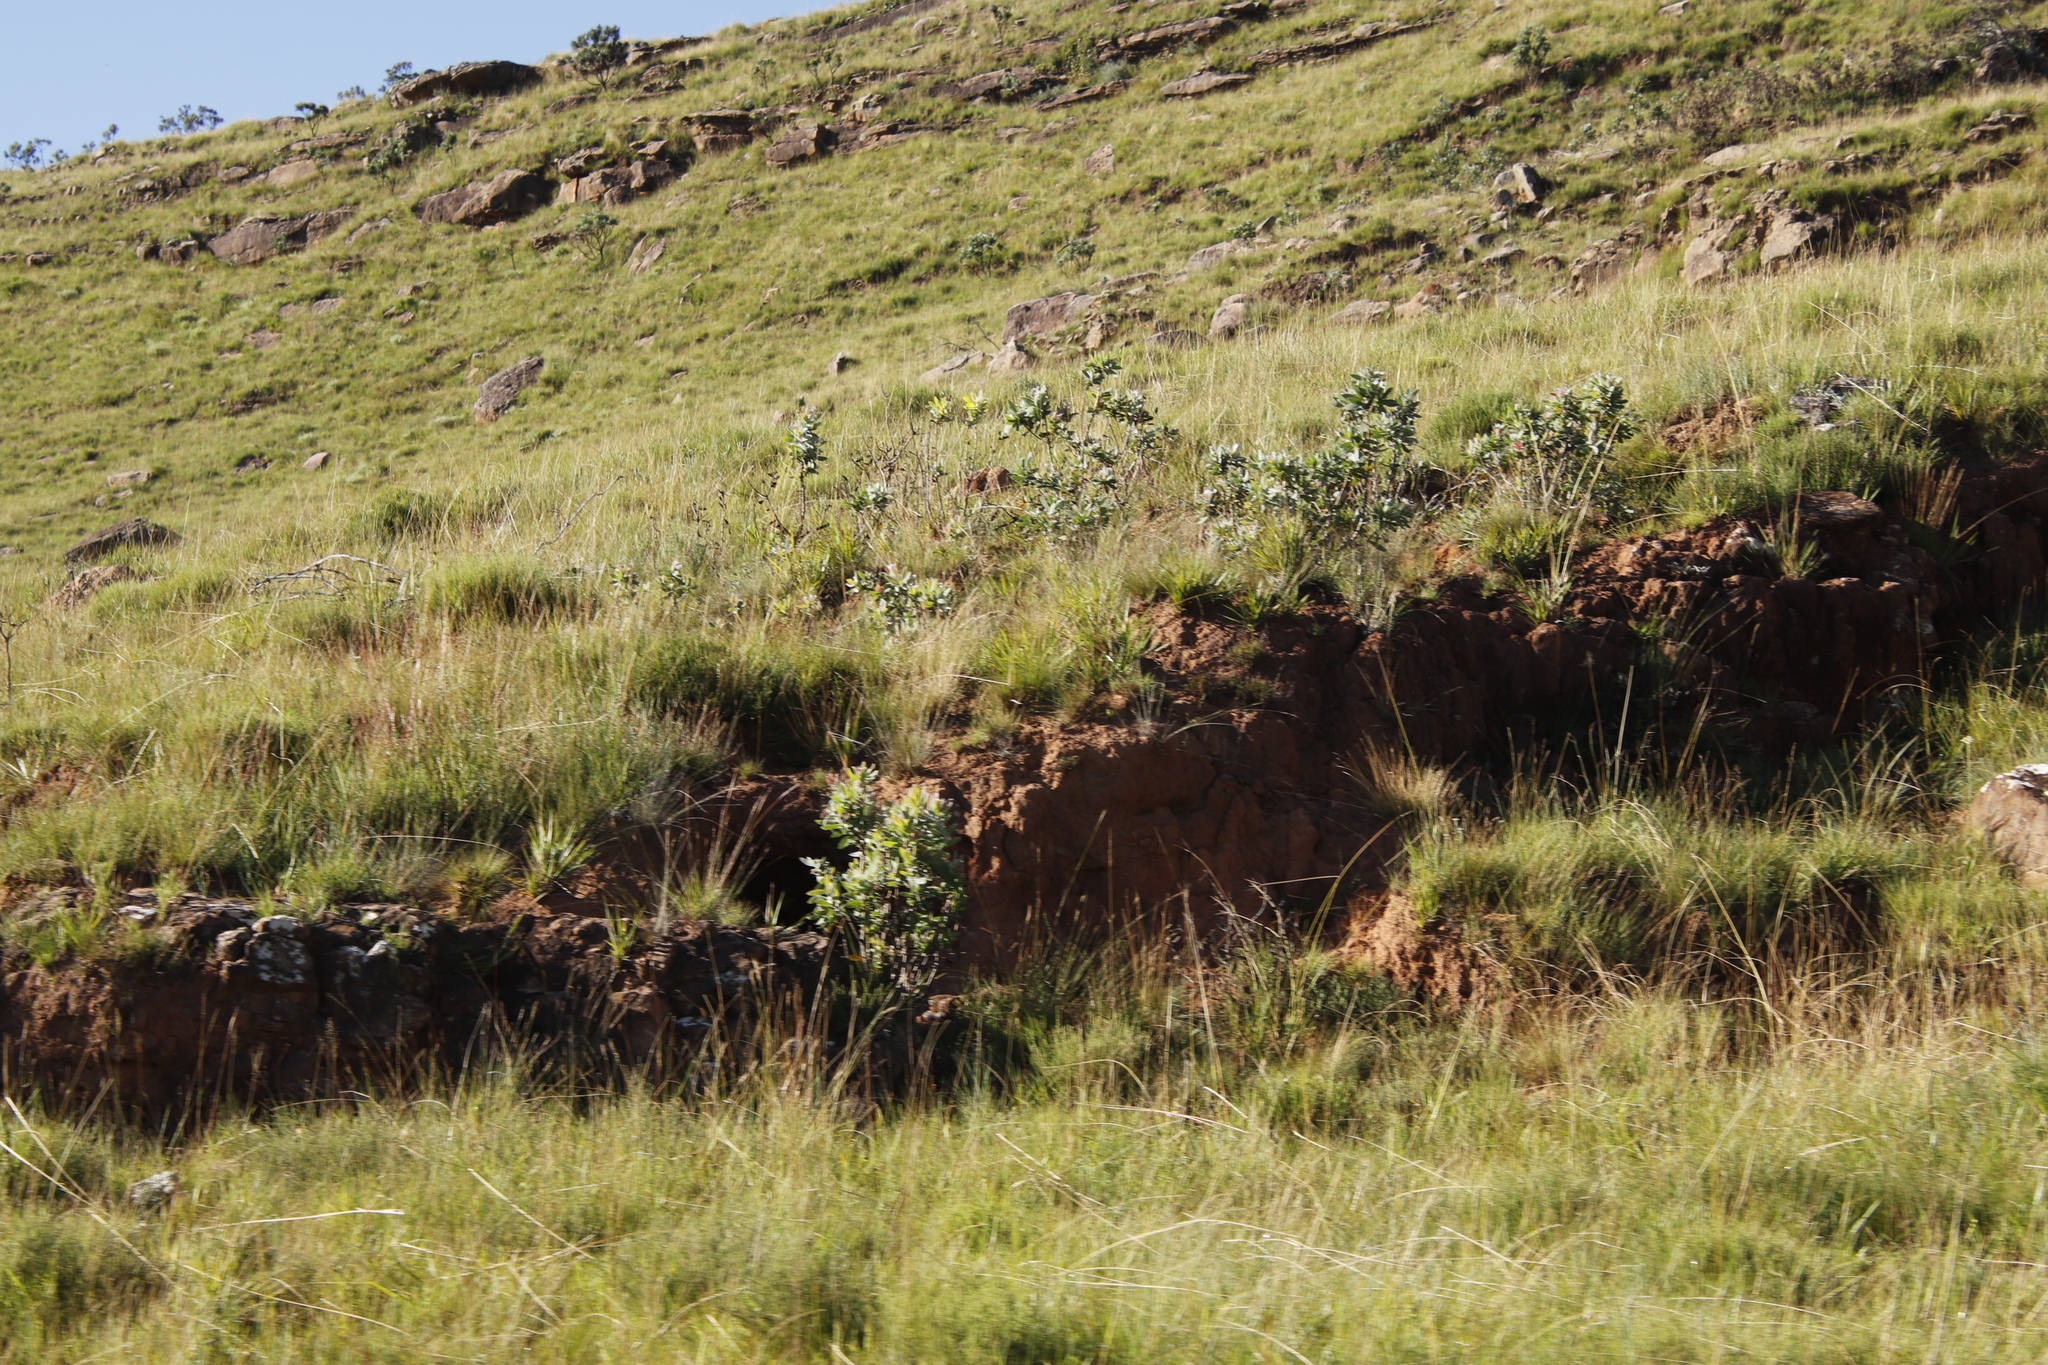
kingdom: Plantae
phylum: Tracheophyta
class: Magnoliopsida
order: Proteales
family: Proteaceae
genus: Protea
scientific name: Protea caffra
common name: Common sugarbush
